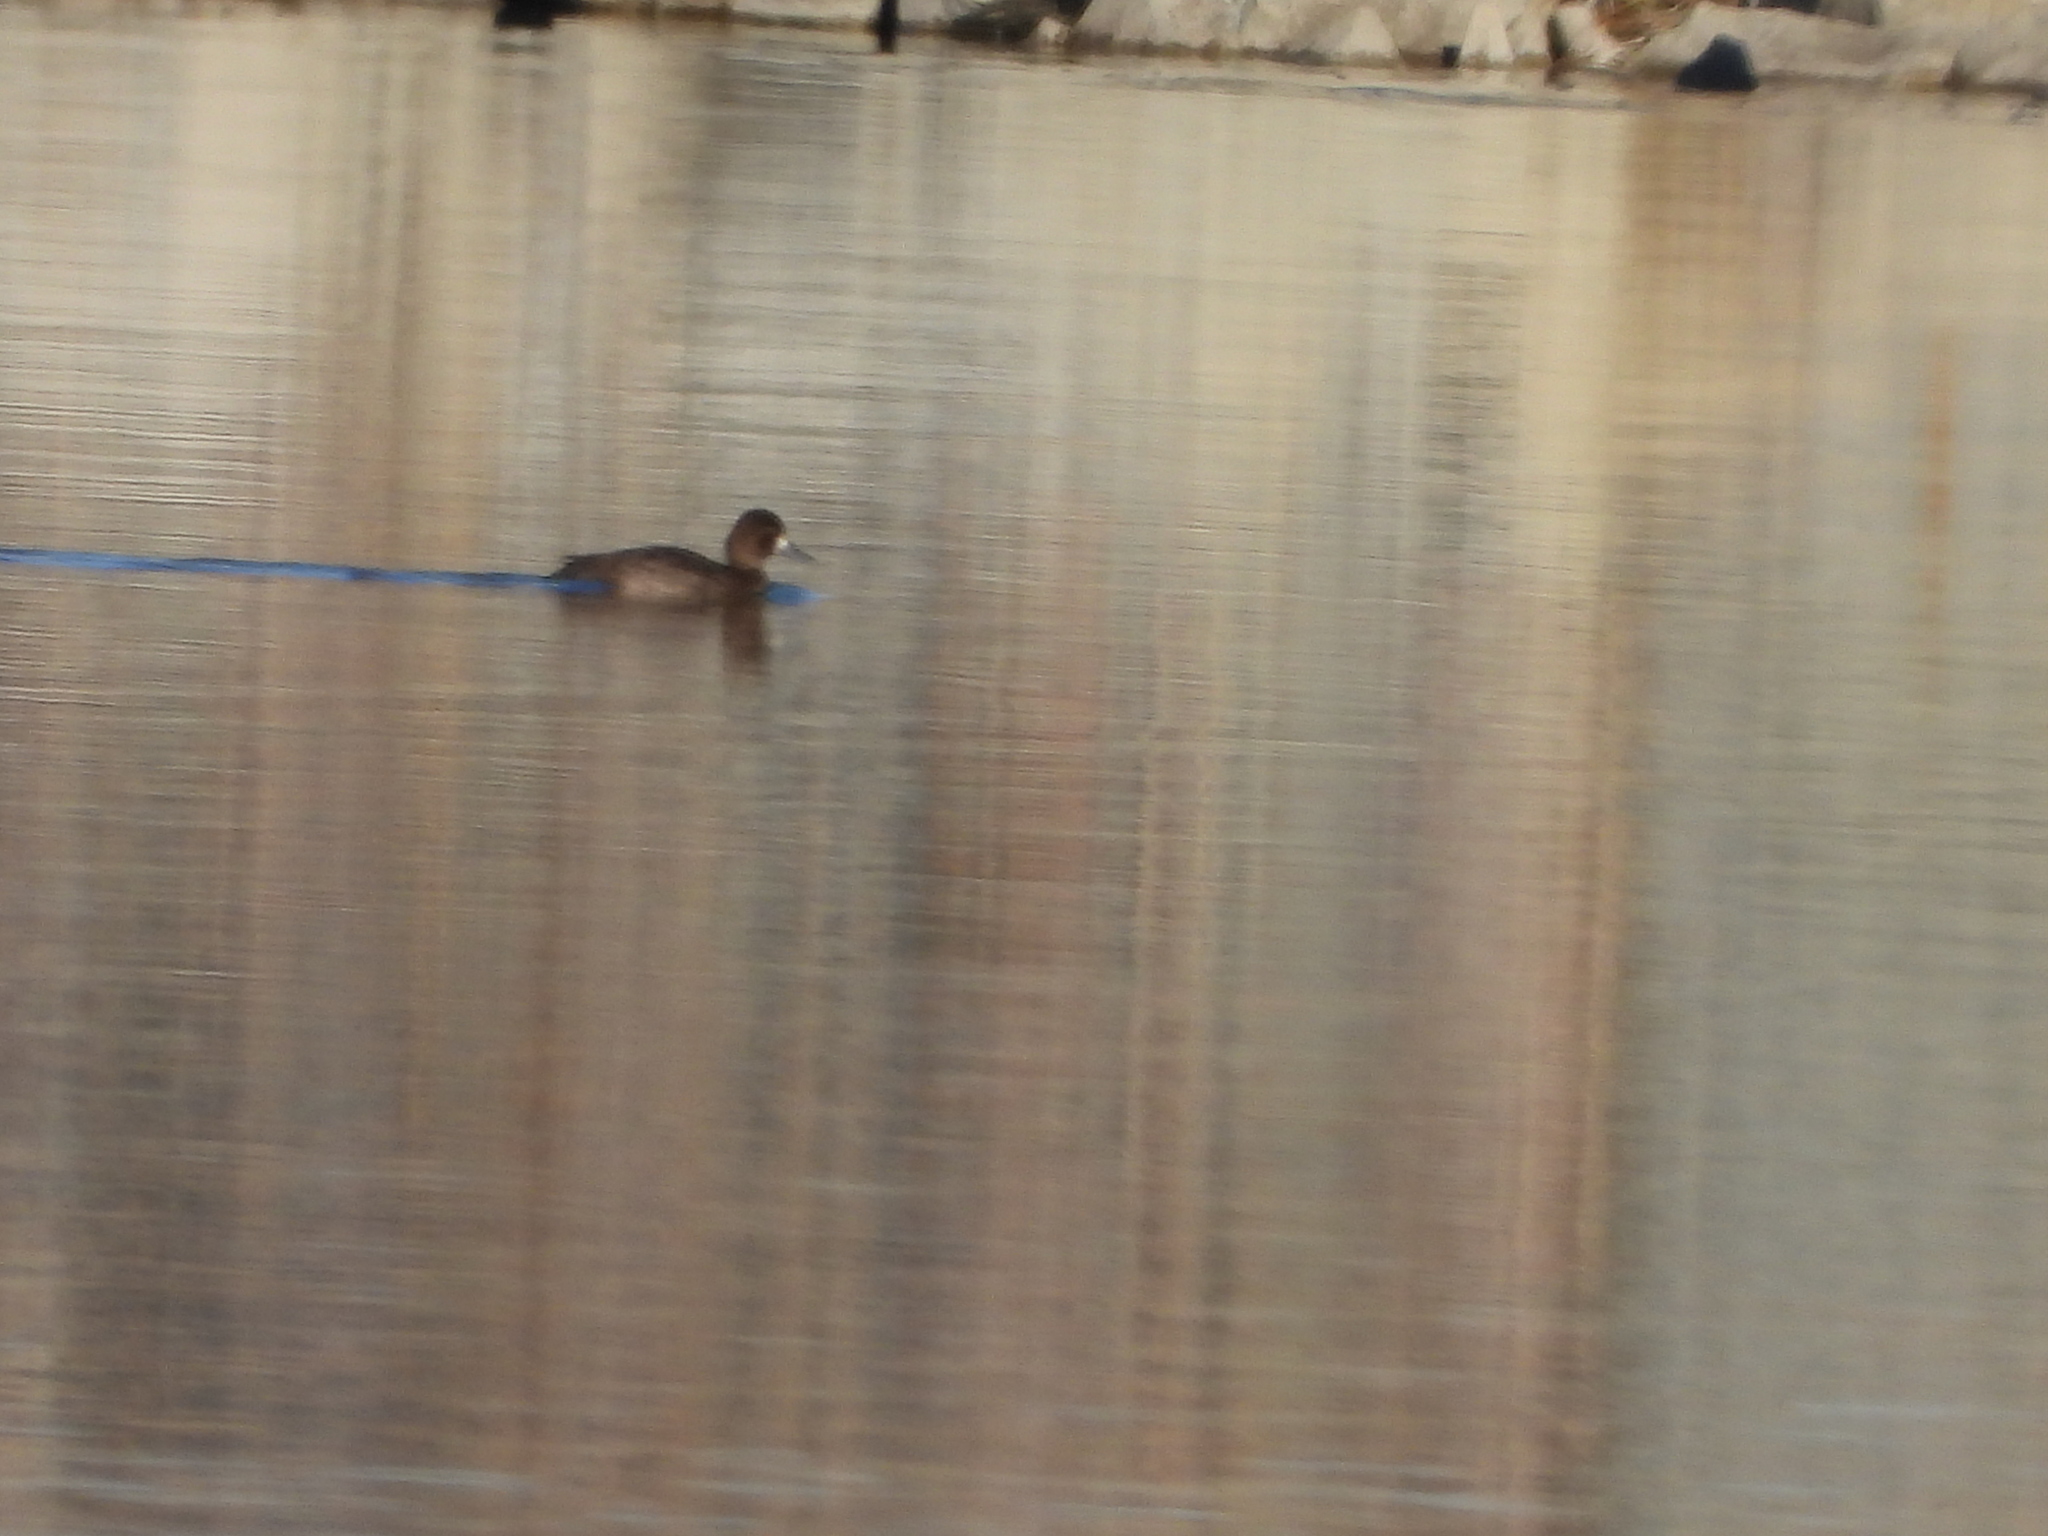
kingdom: Animalia
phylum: Chordata
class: Aves
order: Anseriformes
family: Anatidae
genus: Aythya
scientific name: Aythya affinis
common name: Lesser scaup
